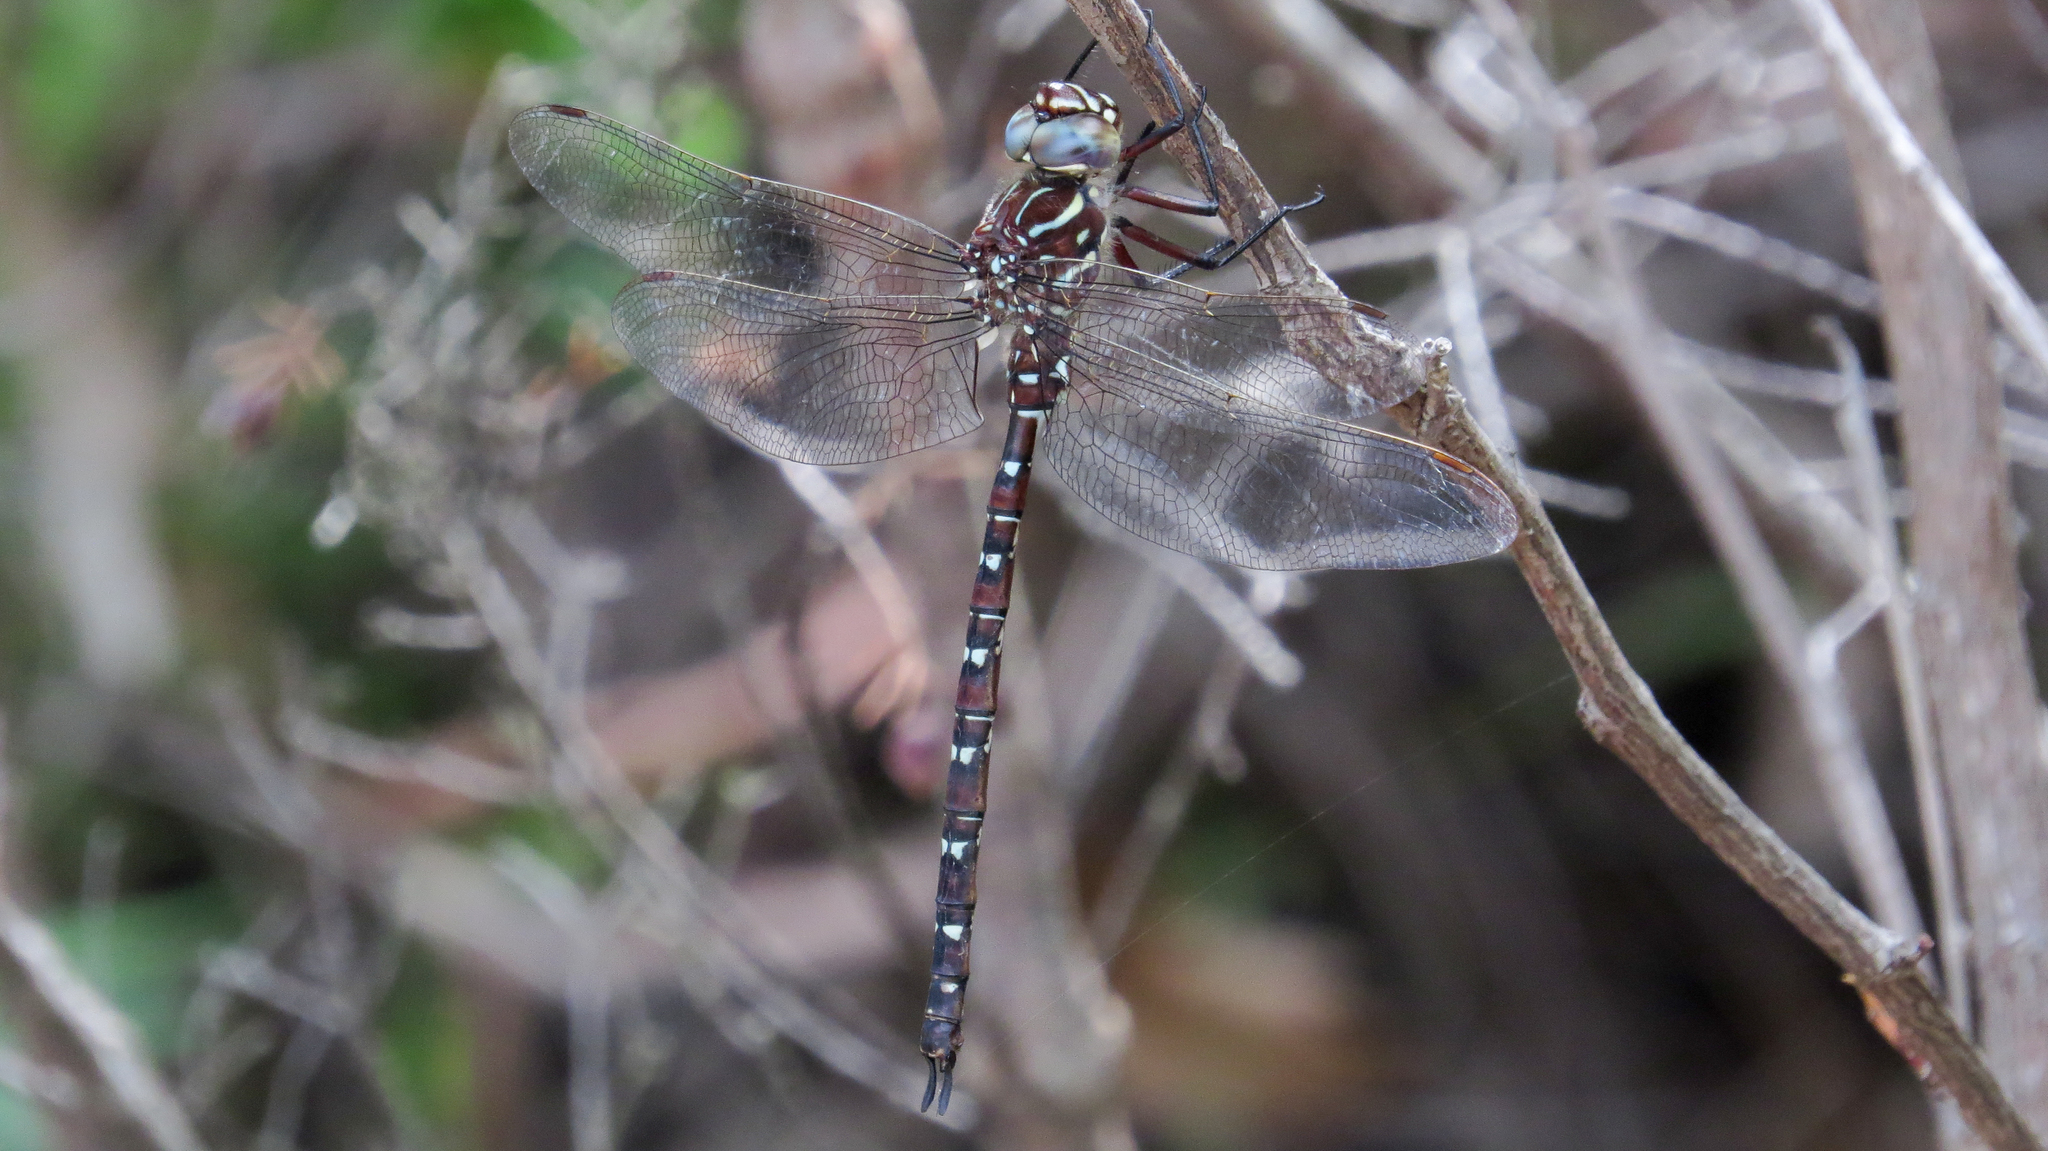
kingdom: Animalia
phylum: Arthropoda
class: Insecta
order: Odonata
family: Aeshnidae
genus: Austroaeschna
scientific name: Austroaeschna unicornis
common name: Unicorn darner
